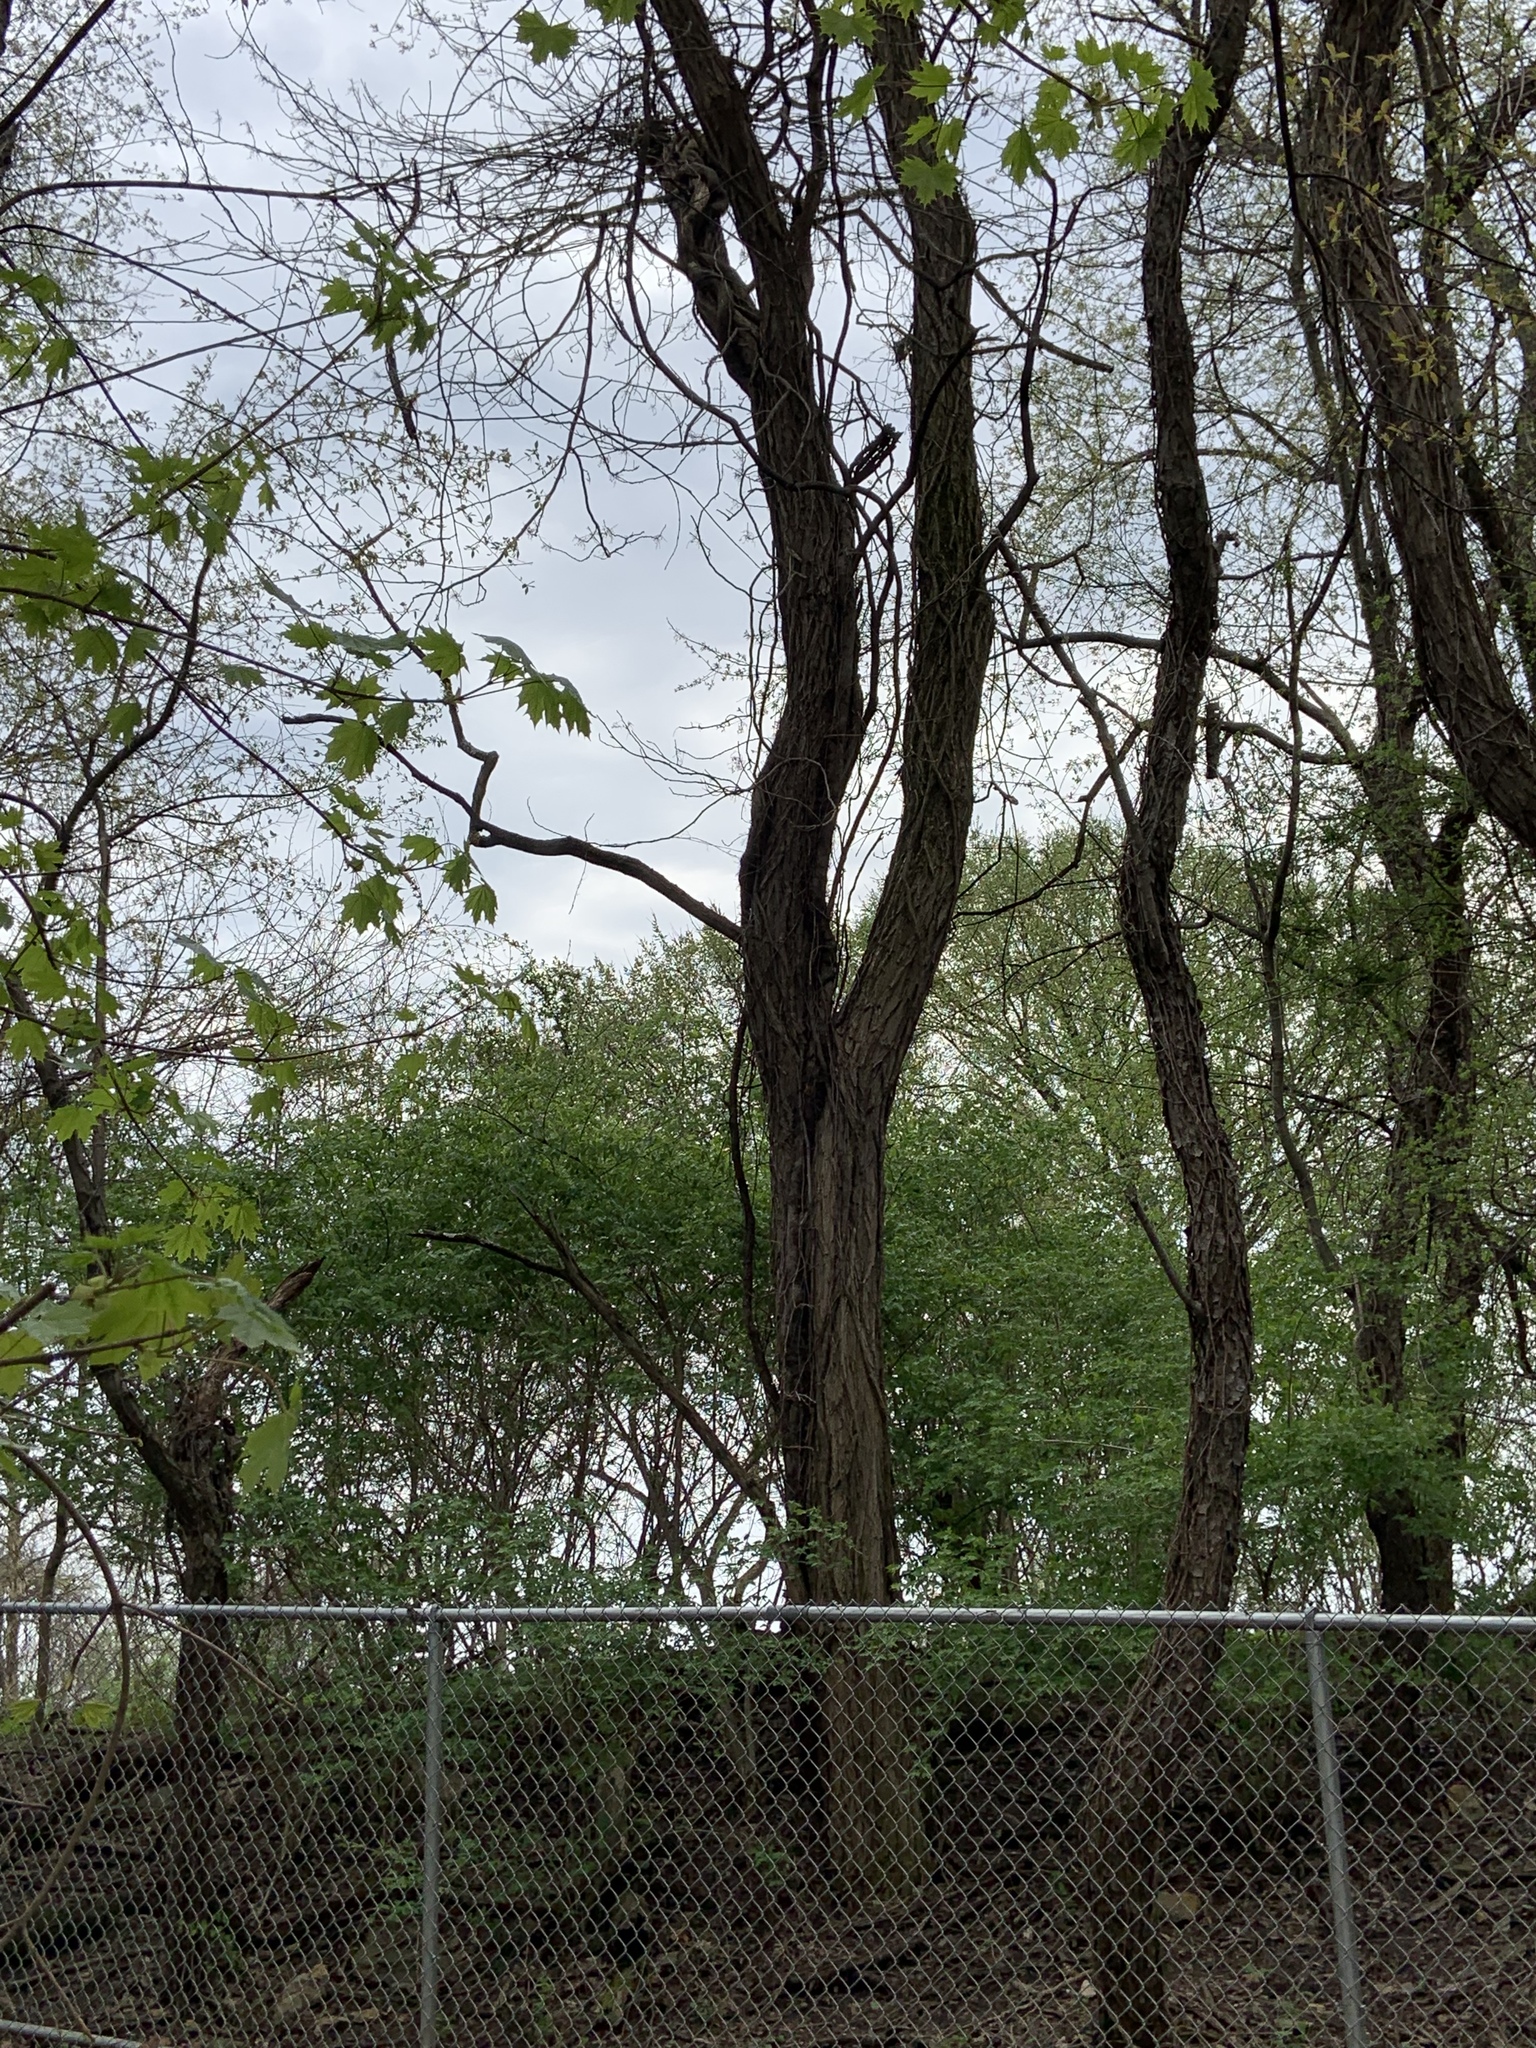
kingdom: Animalia
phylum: Chordata
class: Mammalia
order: Carnivora
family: Procyonidae
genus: Procyon
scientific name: Procyon lotor
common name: Raccoon
